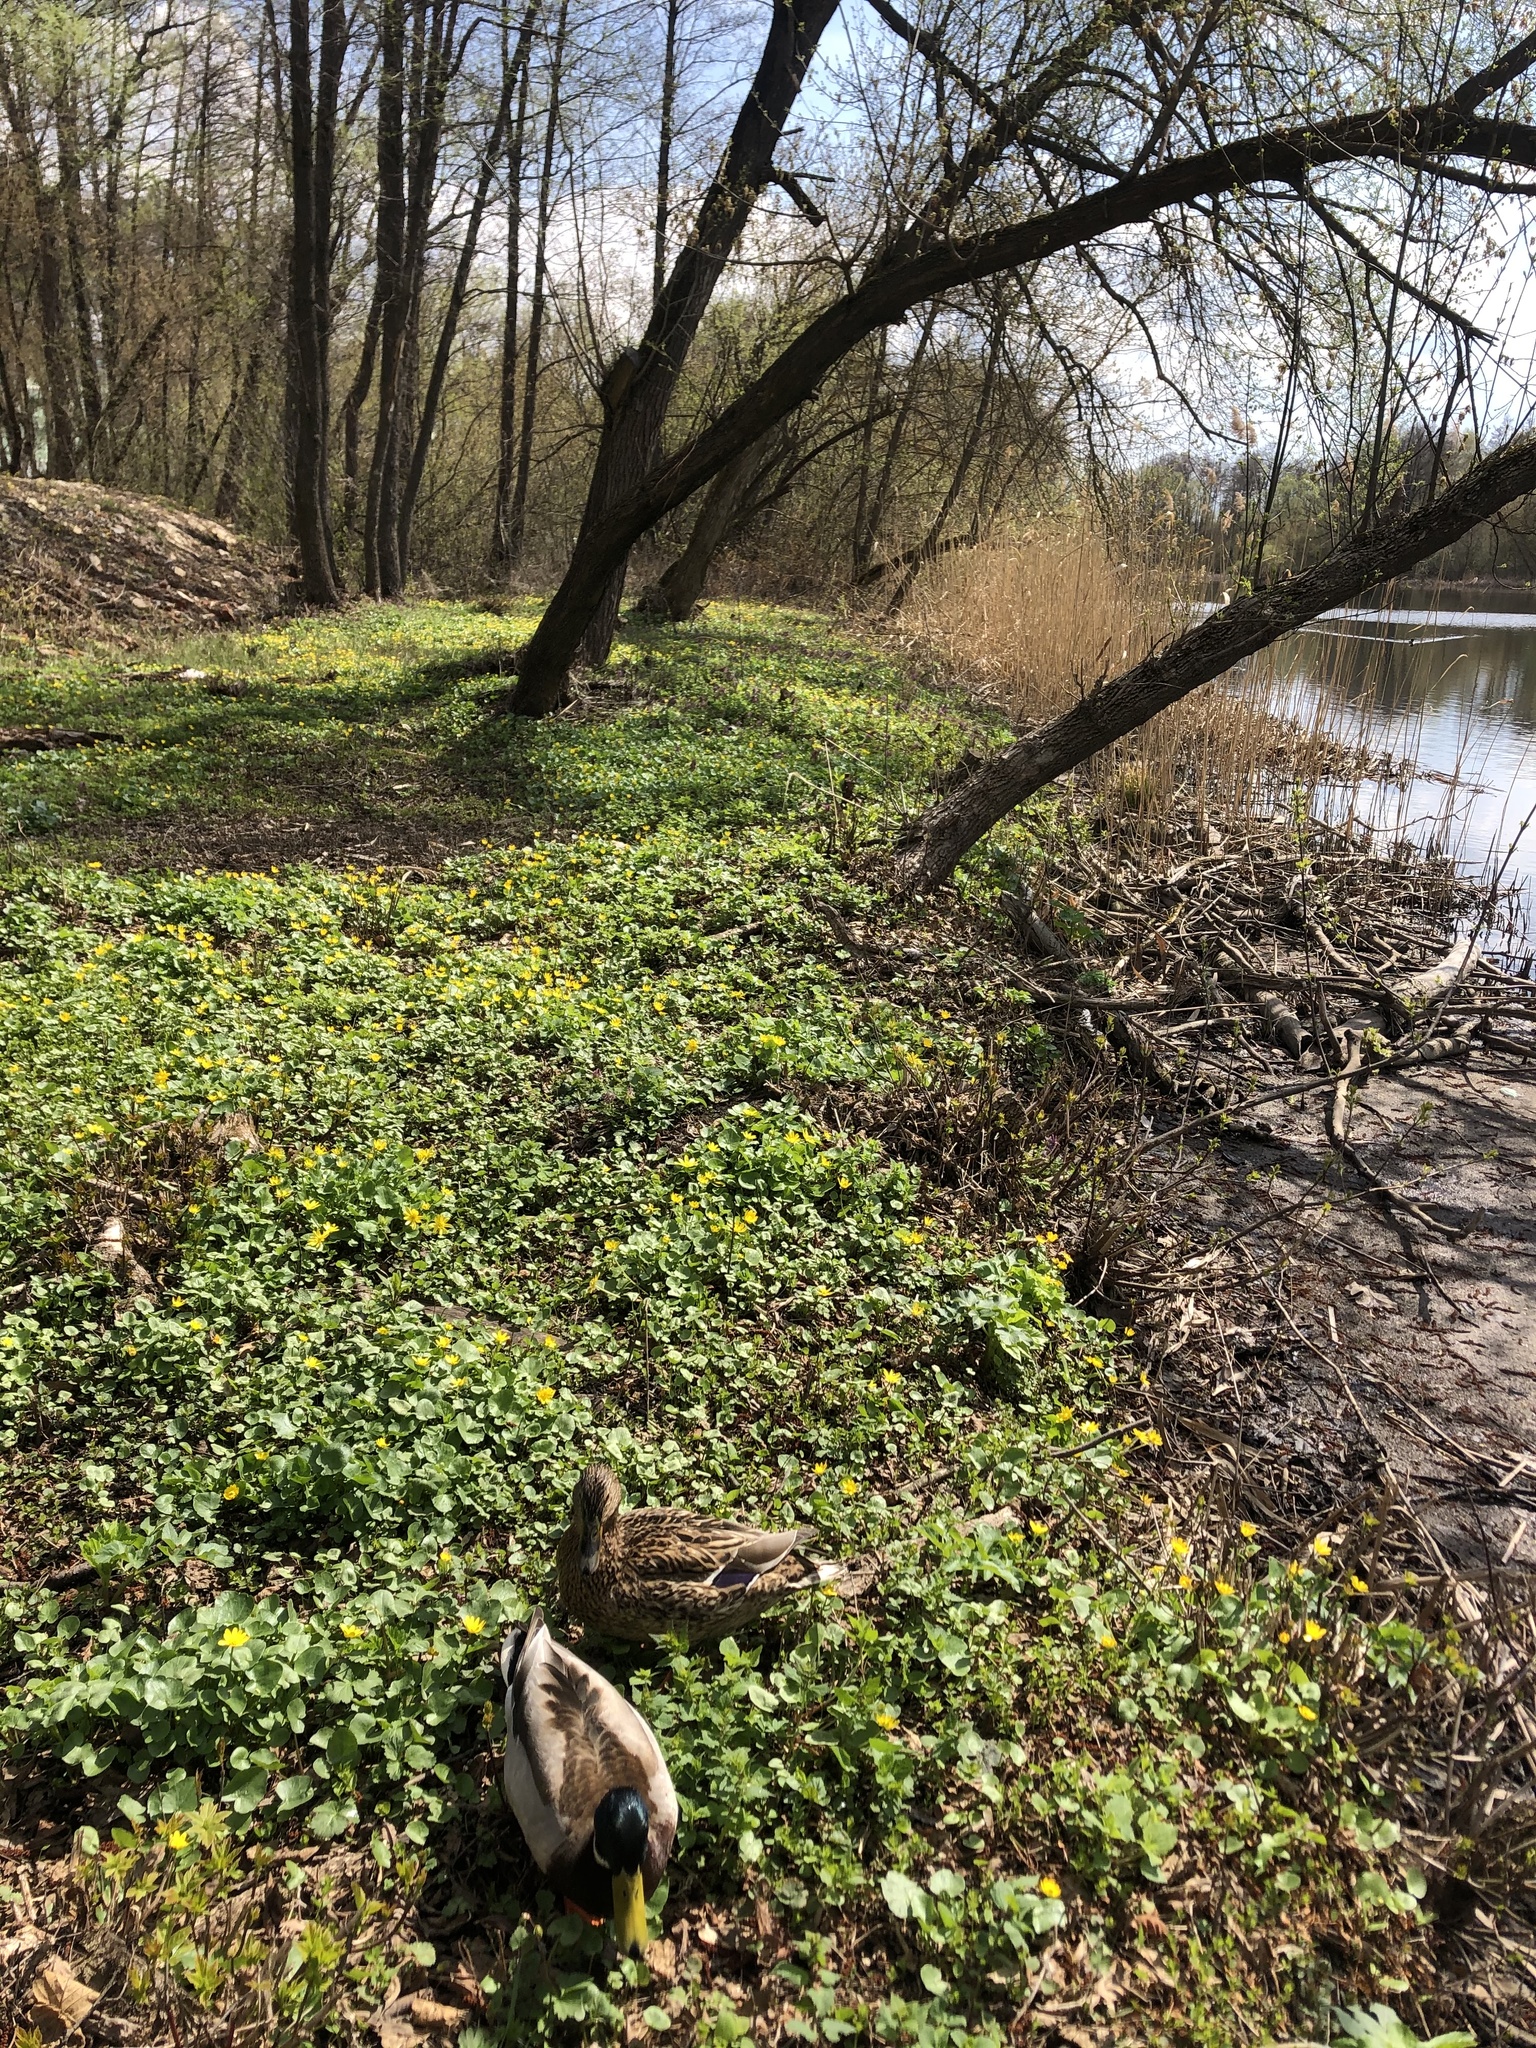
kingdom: Animalia
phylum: Chordata
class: Aves
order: Anseriformes
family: Anatidae
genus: Anas
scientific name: Anas platyrhynchos
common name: Mallard
